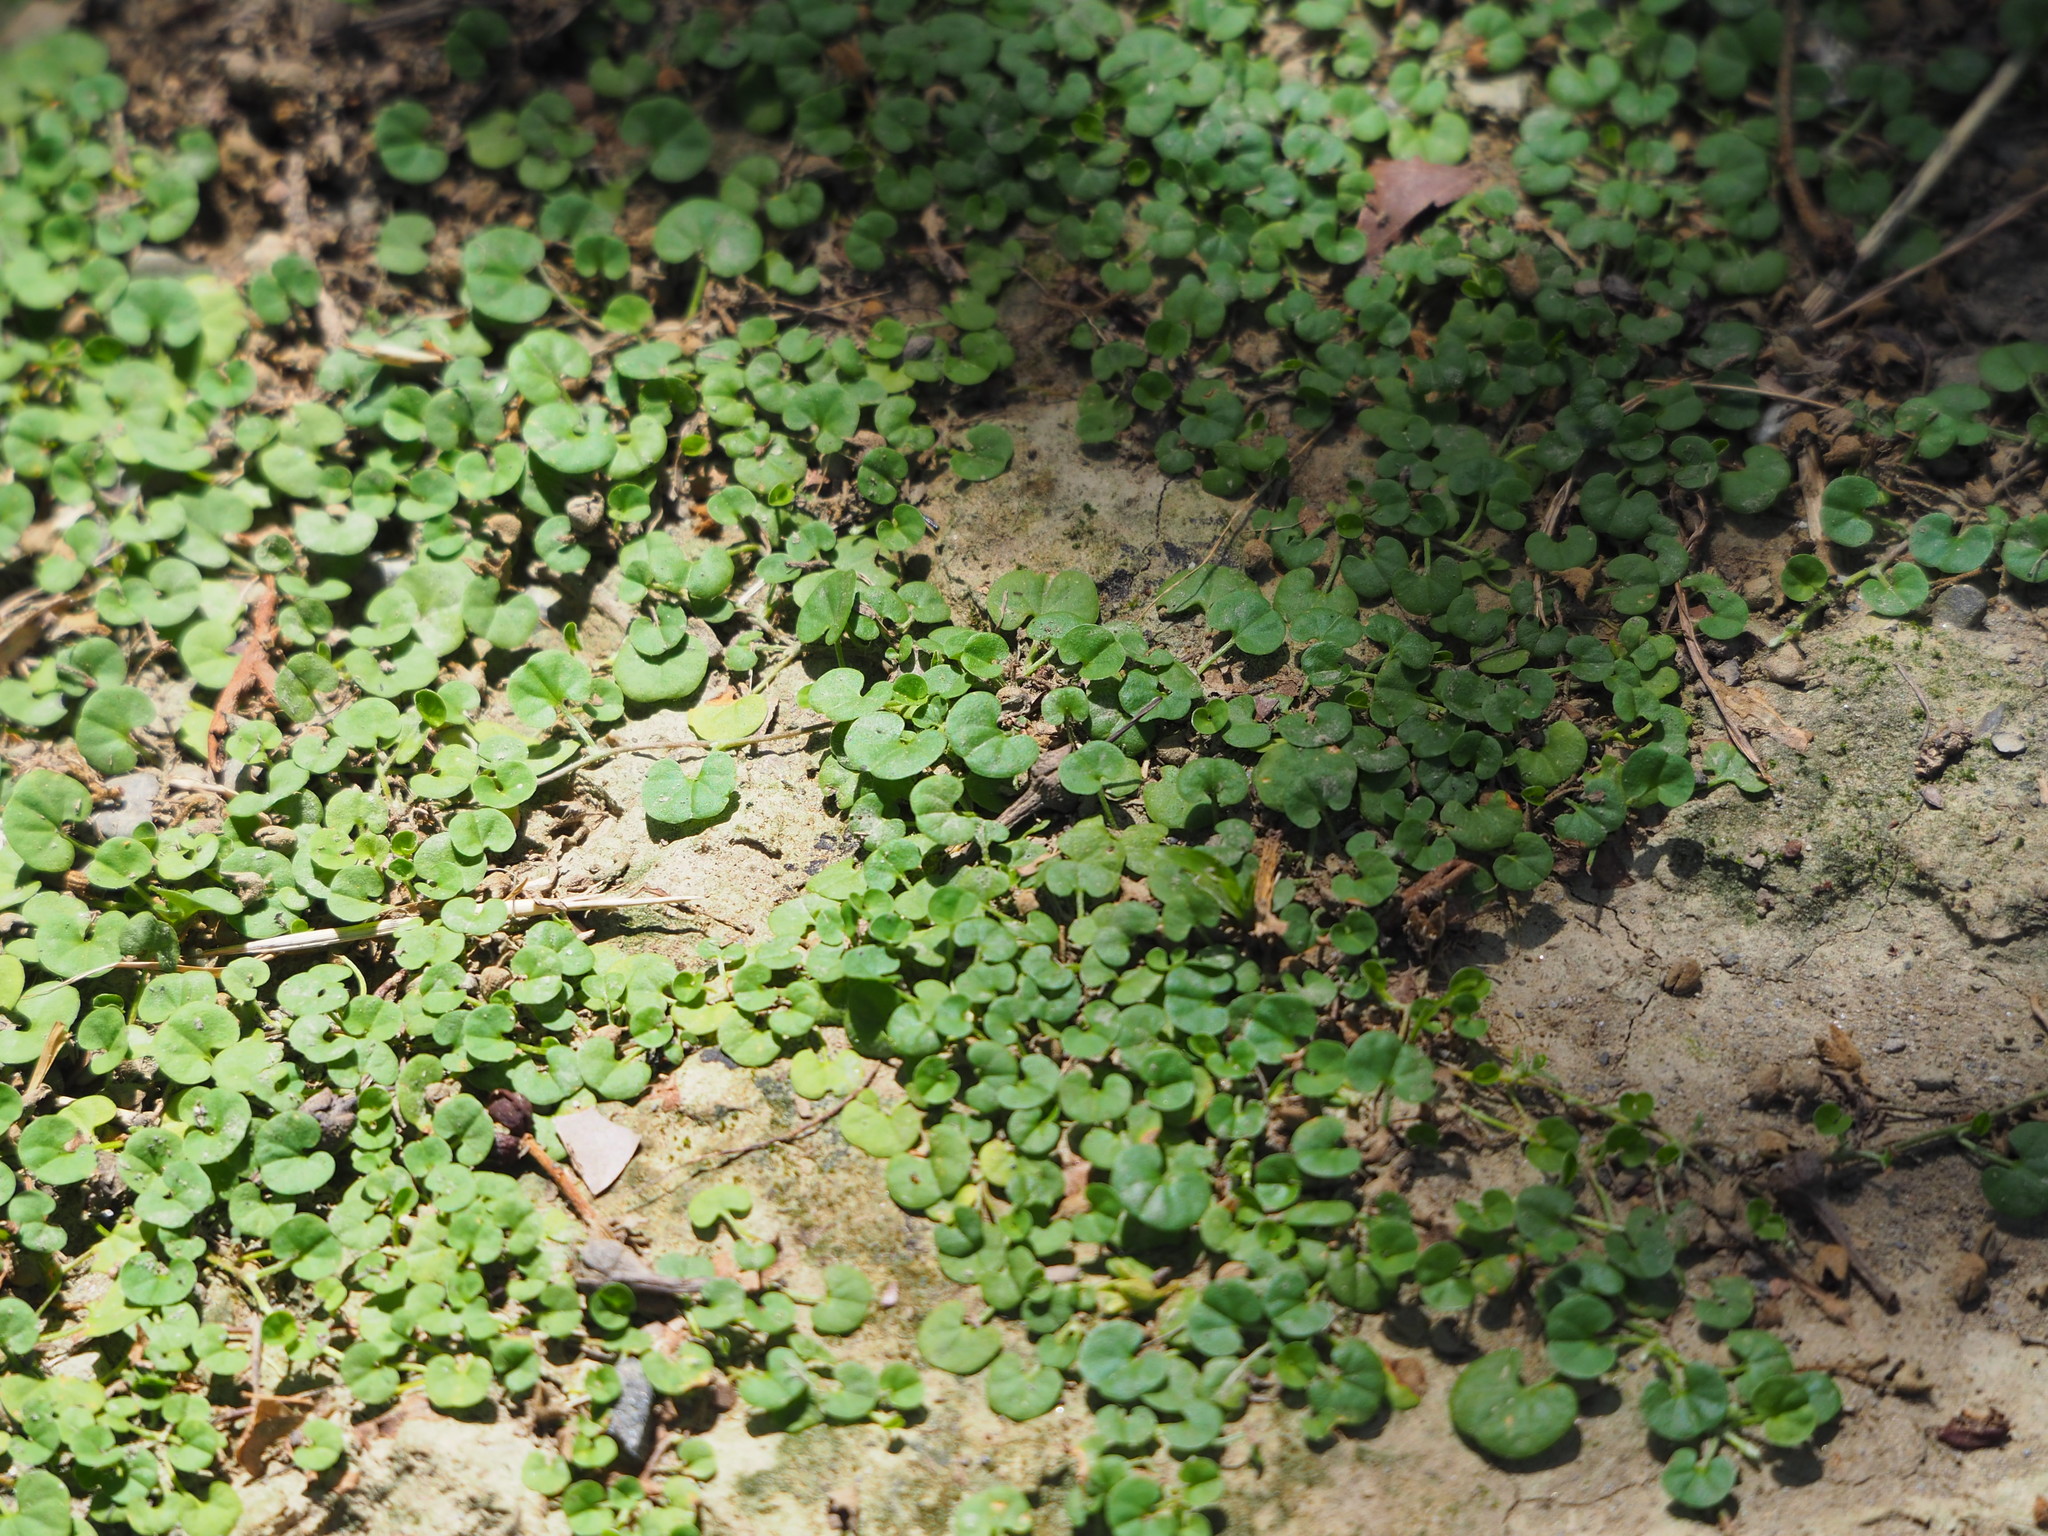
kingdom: Plantae
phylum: Tracheophyta
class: Magnoliopsida
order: Solanales
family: Convolvulaceae
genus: Dichondra
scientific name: Dichondra micrantha
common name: Kidneyweed
